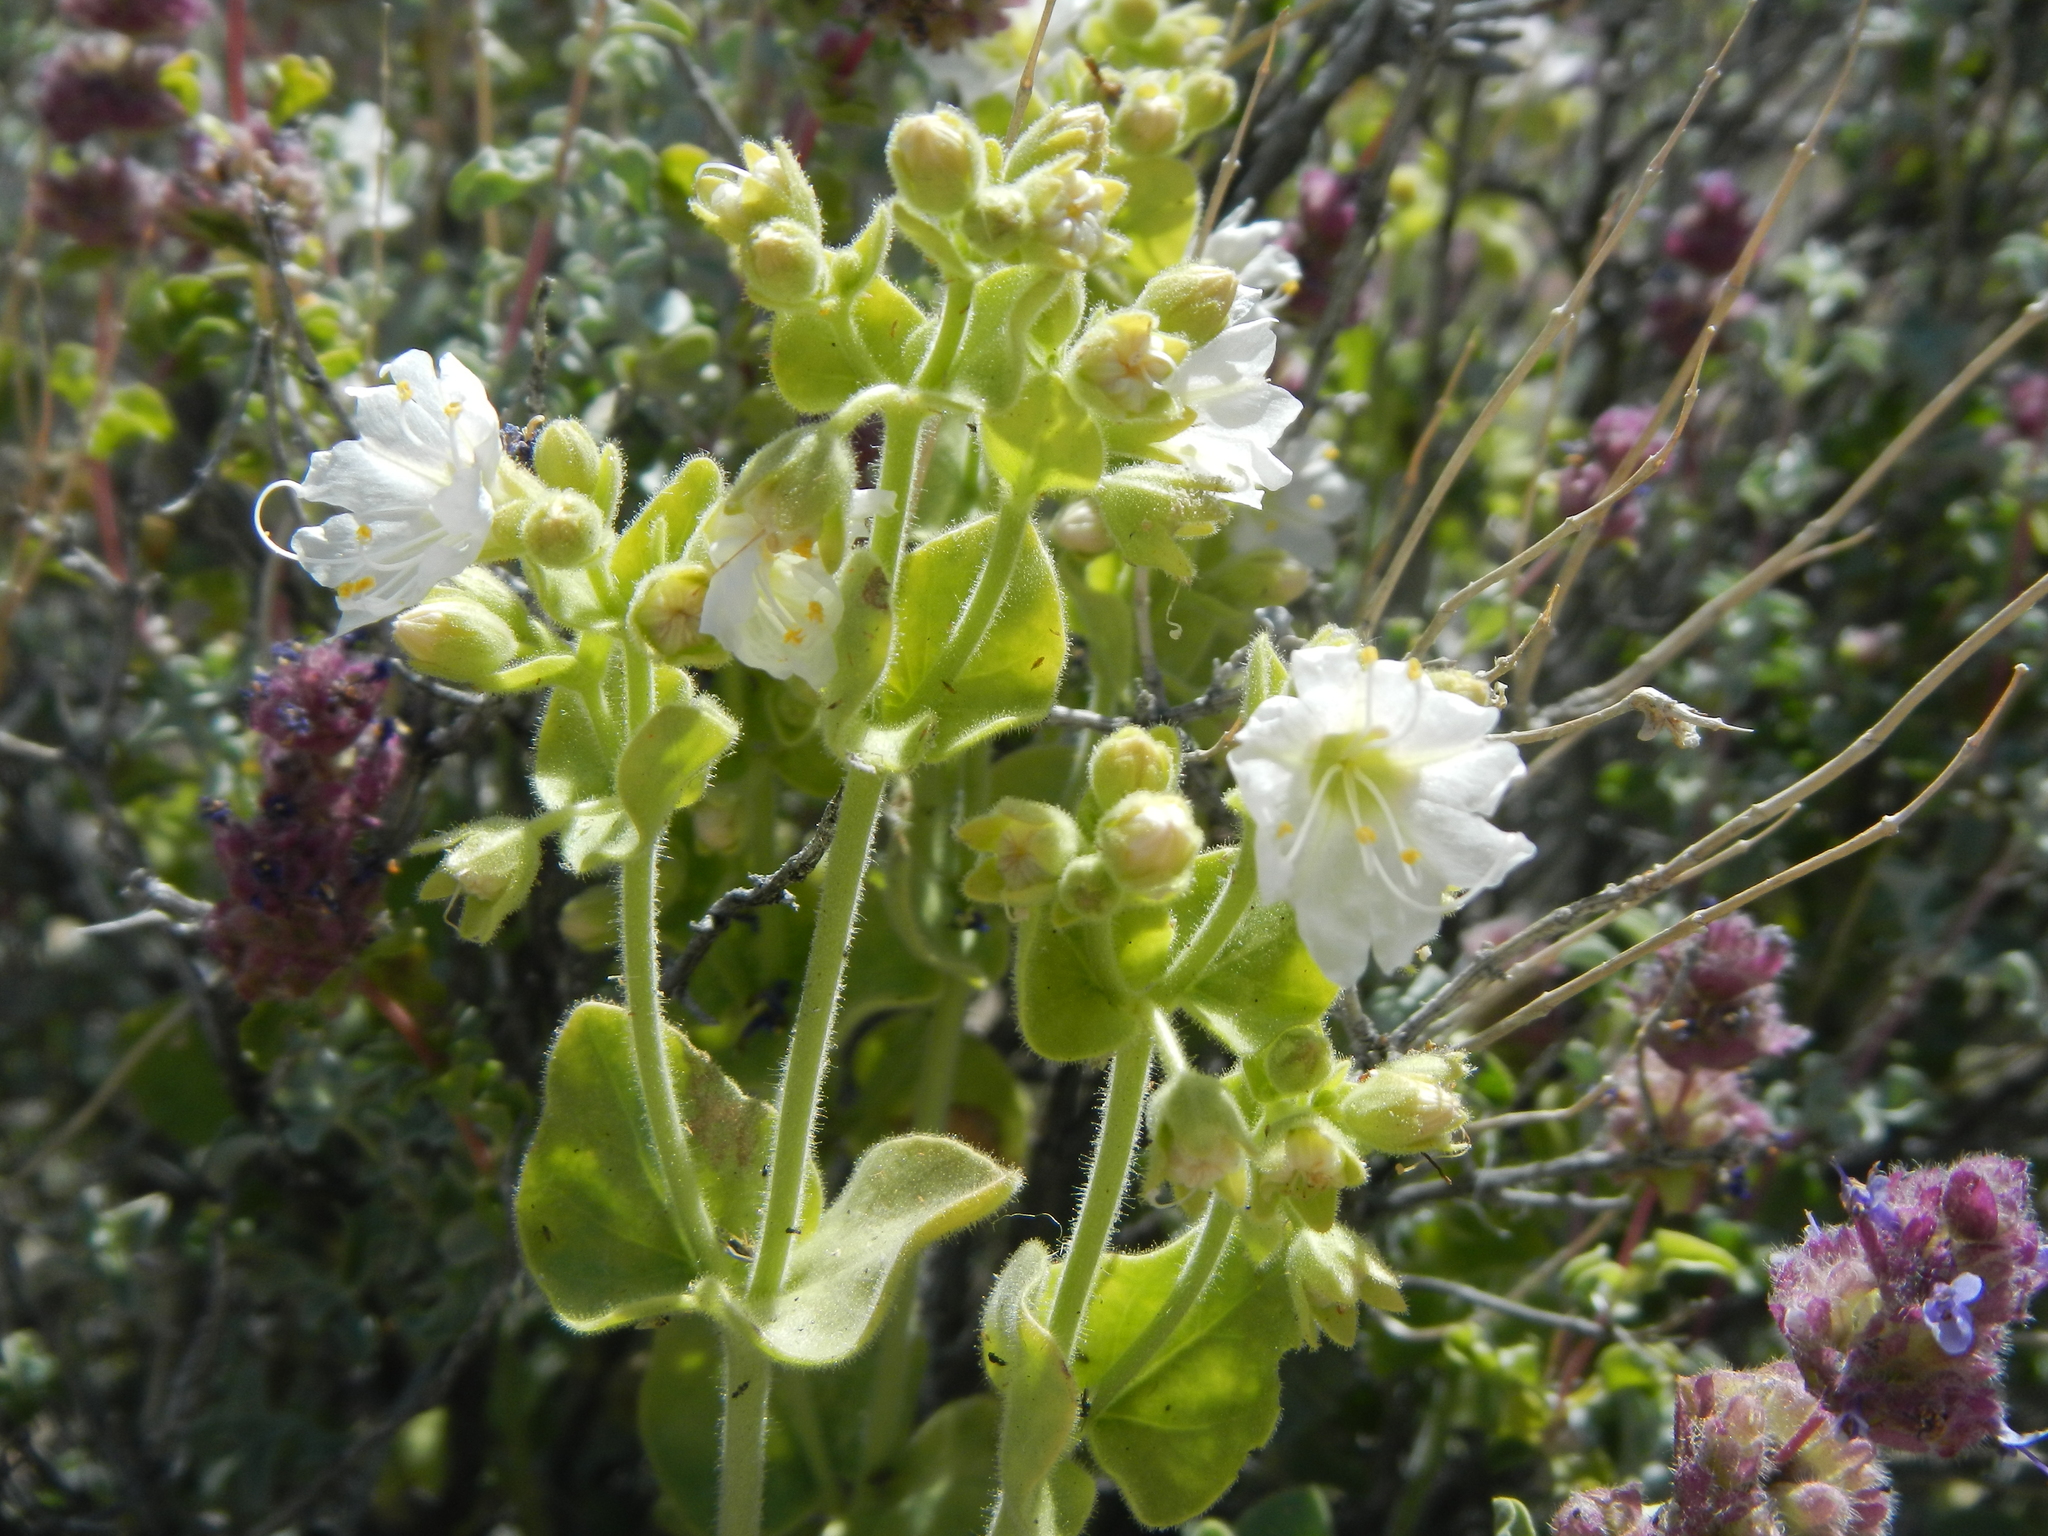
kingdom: Plantae
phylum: Tracheophyta
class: Magnoliopsida
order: Caryophyllales
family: Nyctaginaceae
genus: Mirabilis
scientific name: Mirabilis laevis
